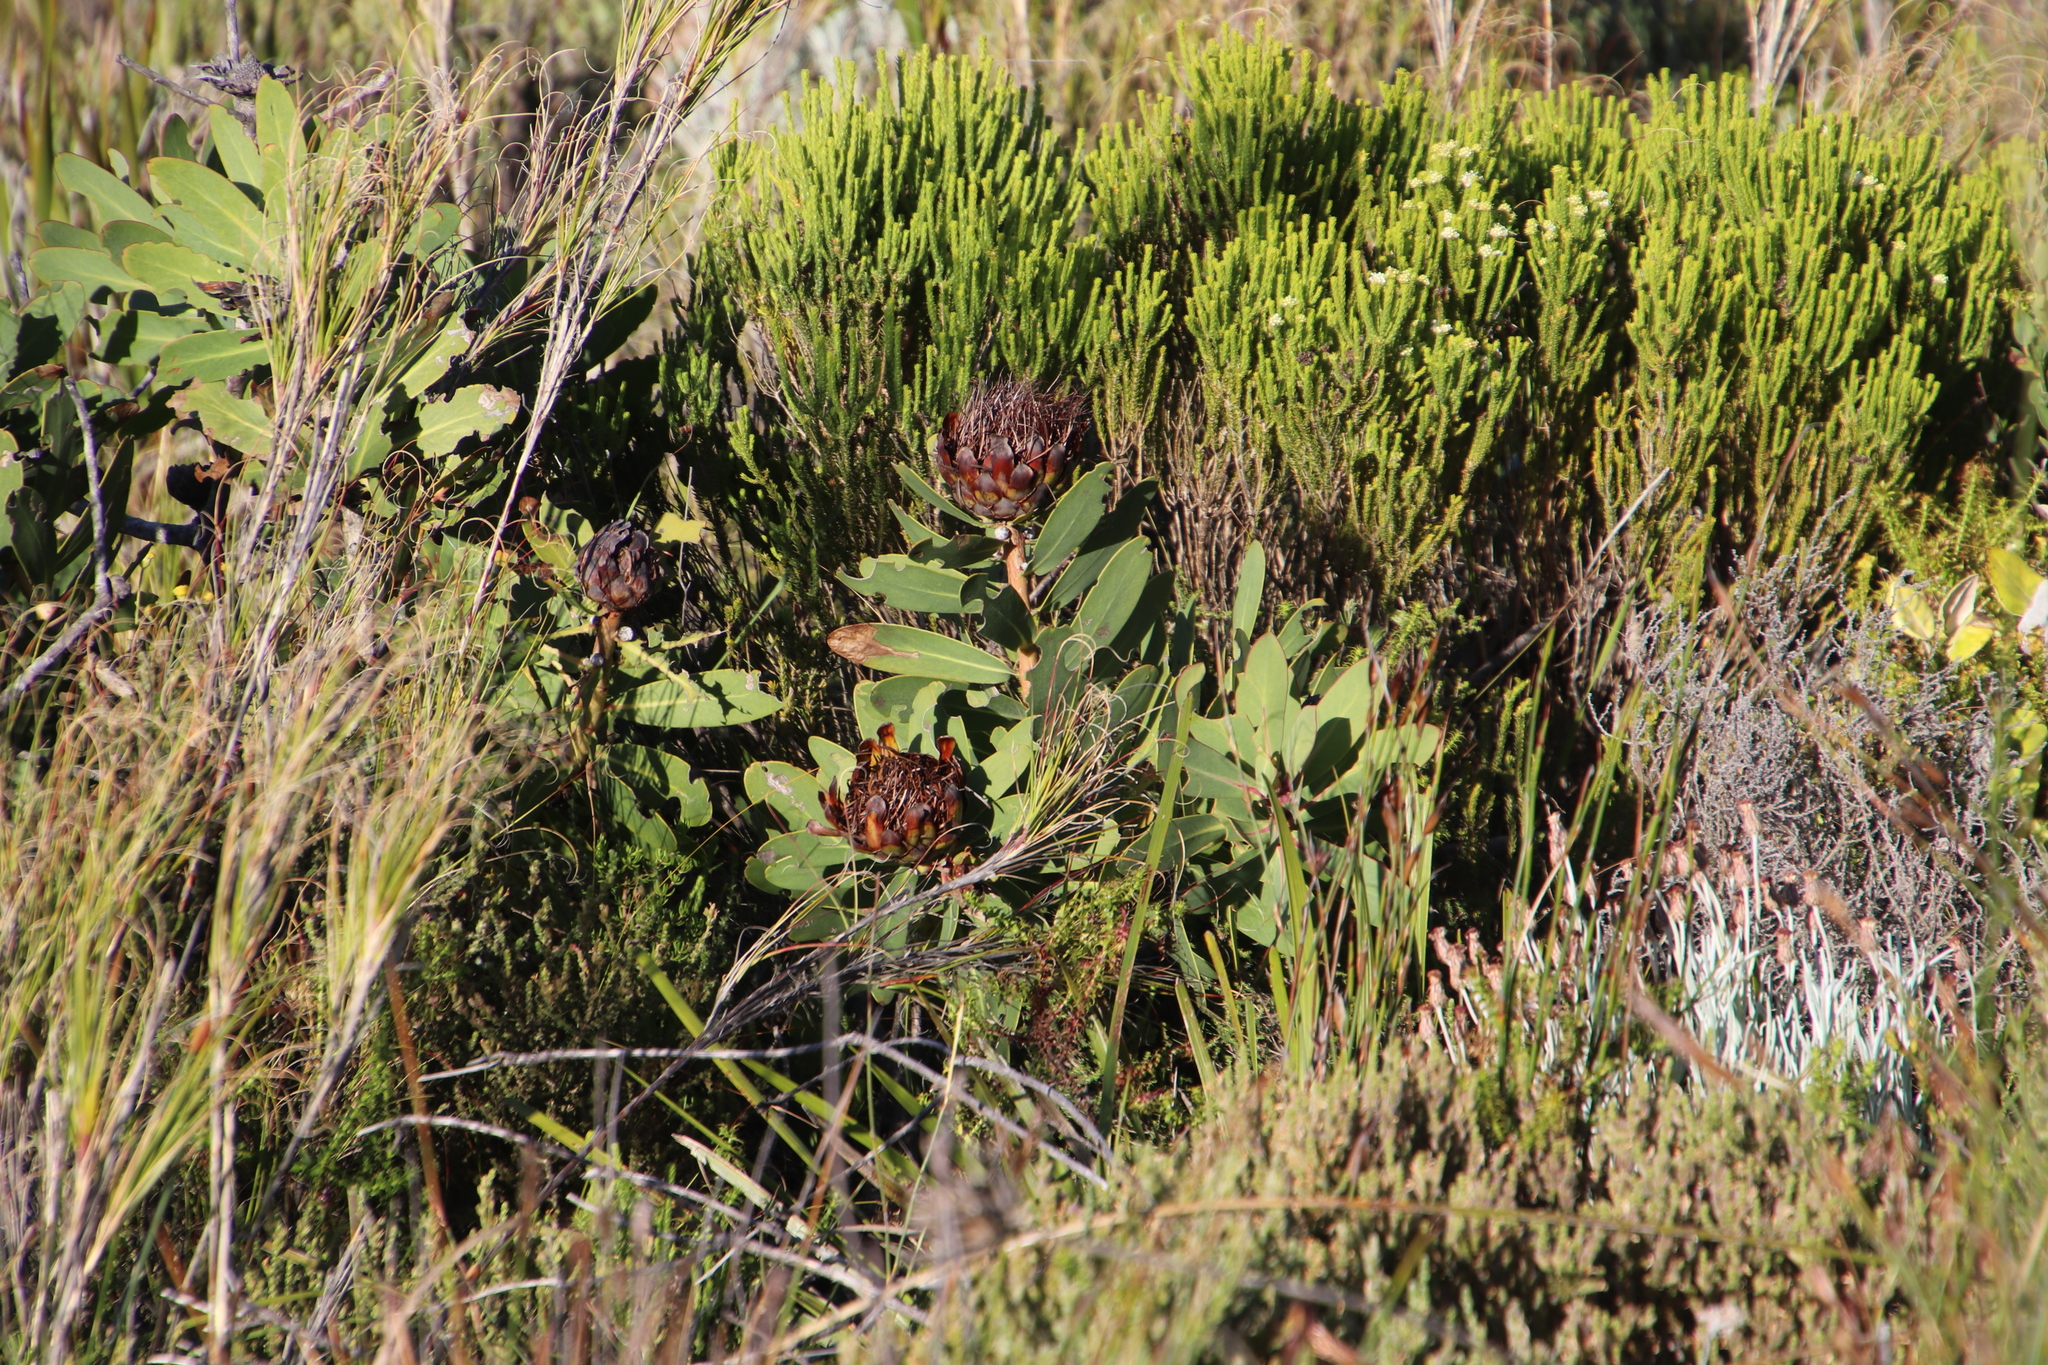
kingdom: Plantae
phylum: Tracheophyta
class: Magnoliopsida
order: Proteales
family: Proteaceae
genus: Protea
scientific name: Protea nitida
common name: Tree protea
